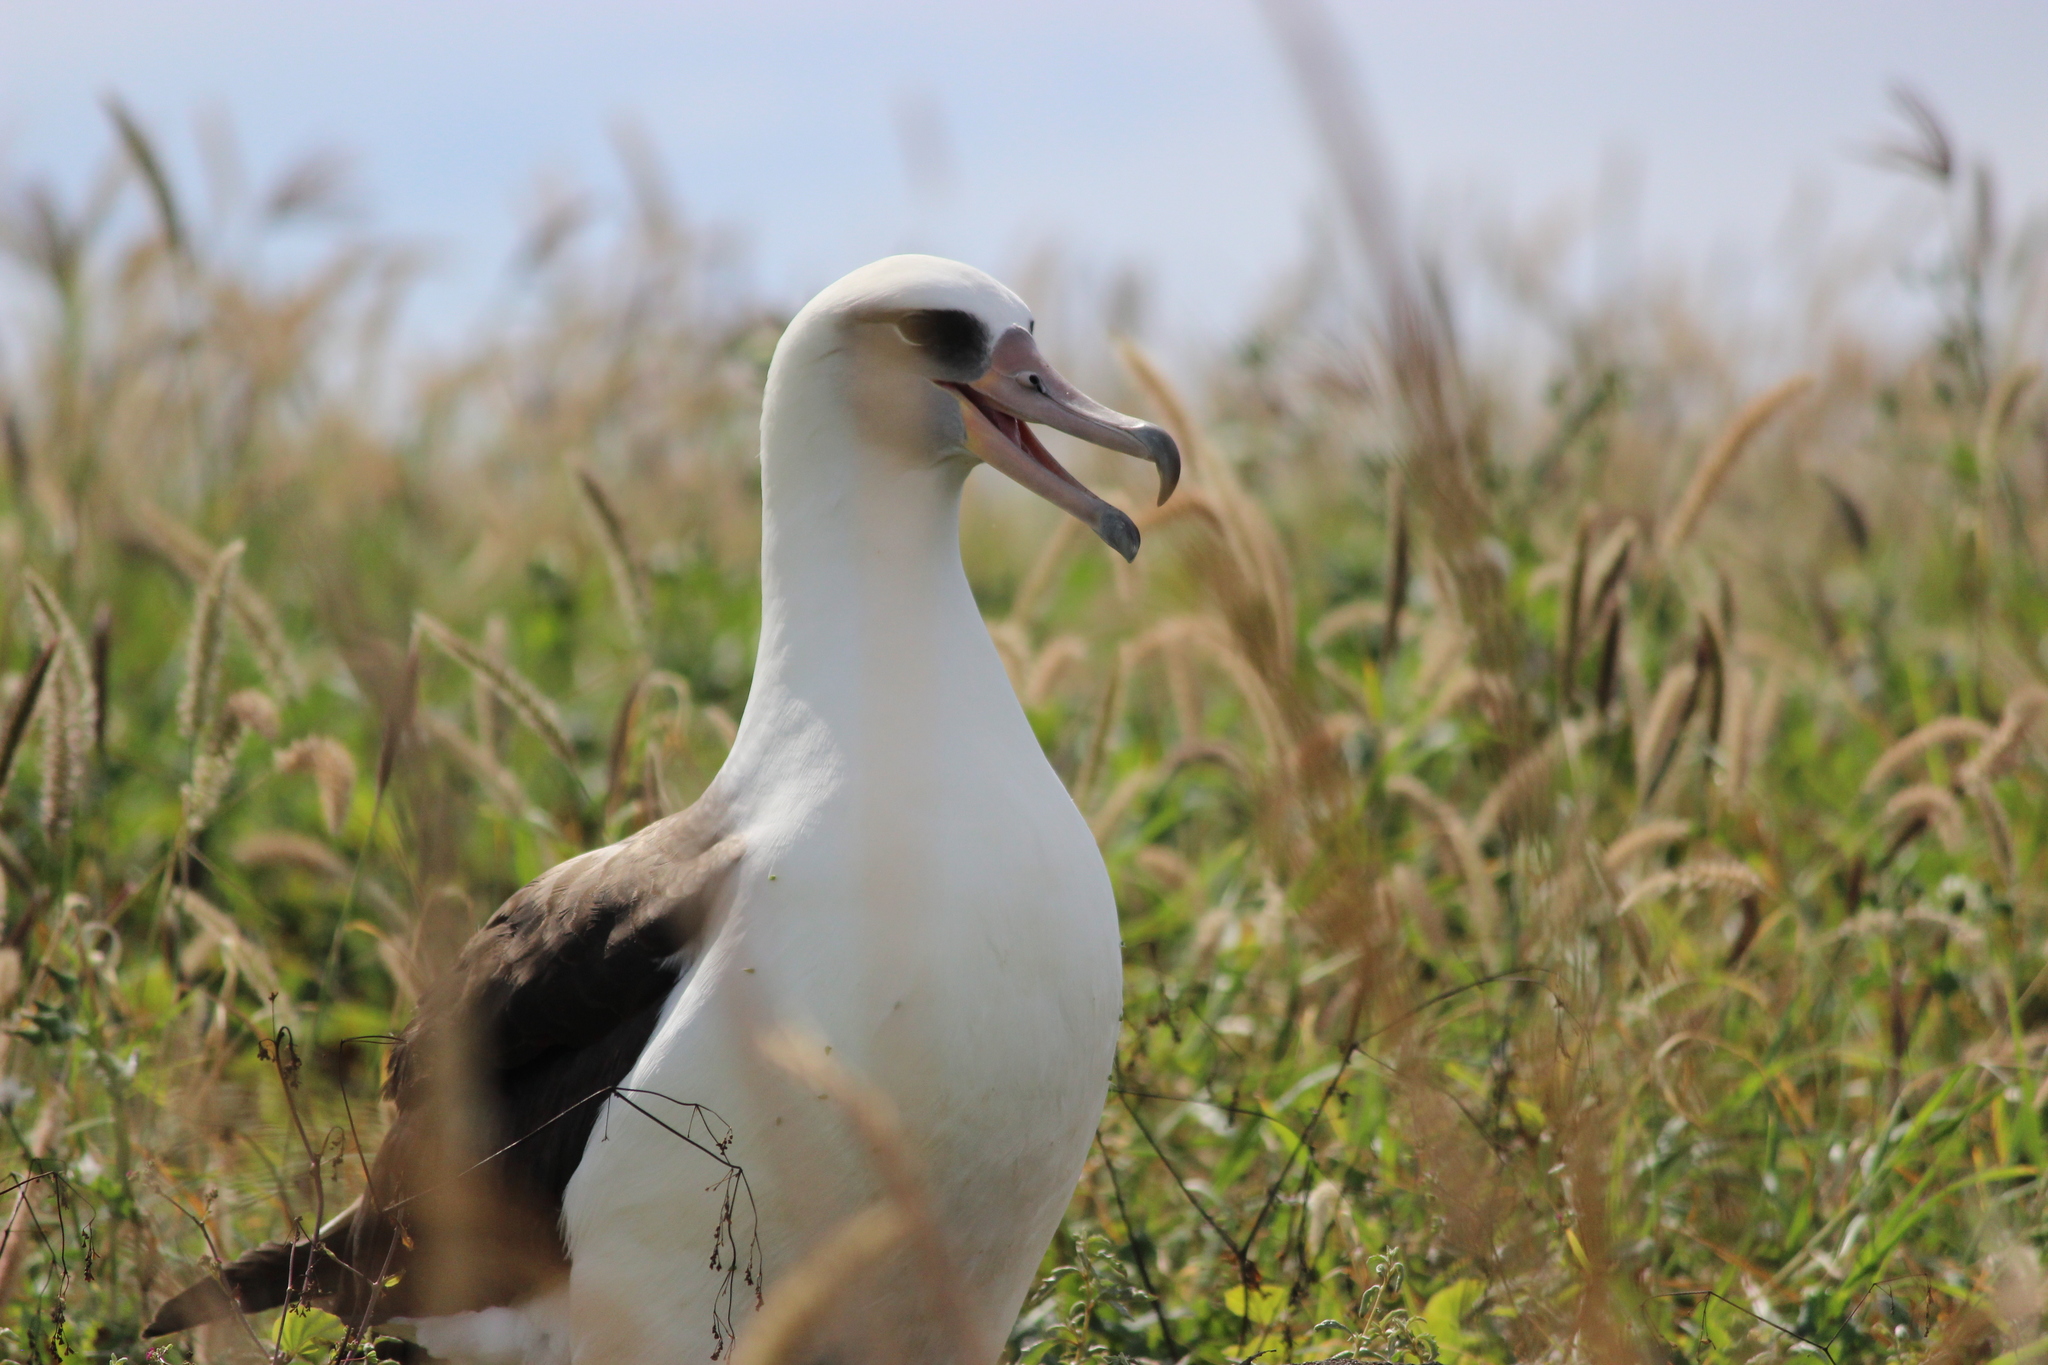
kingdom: Animalia
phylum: Chordata
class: Aves
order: Procellariiformes
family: Diomedeidae
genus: Phoebastria
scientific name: Phoebastria immutabilis
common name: Laysan albatross
